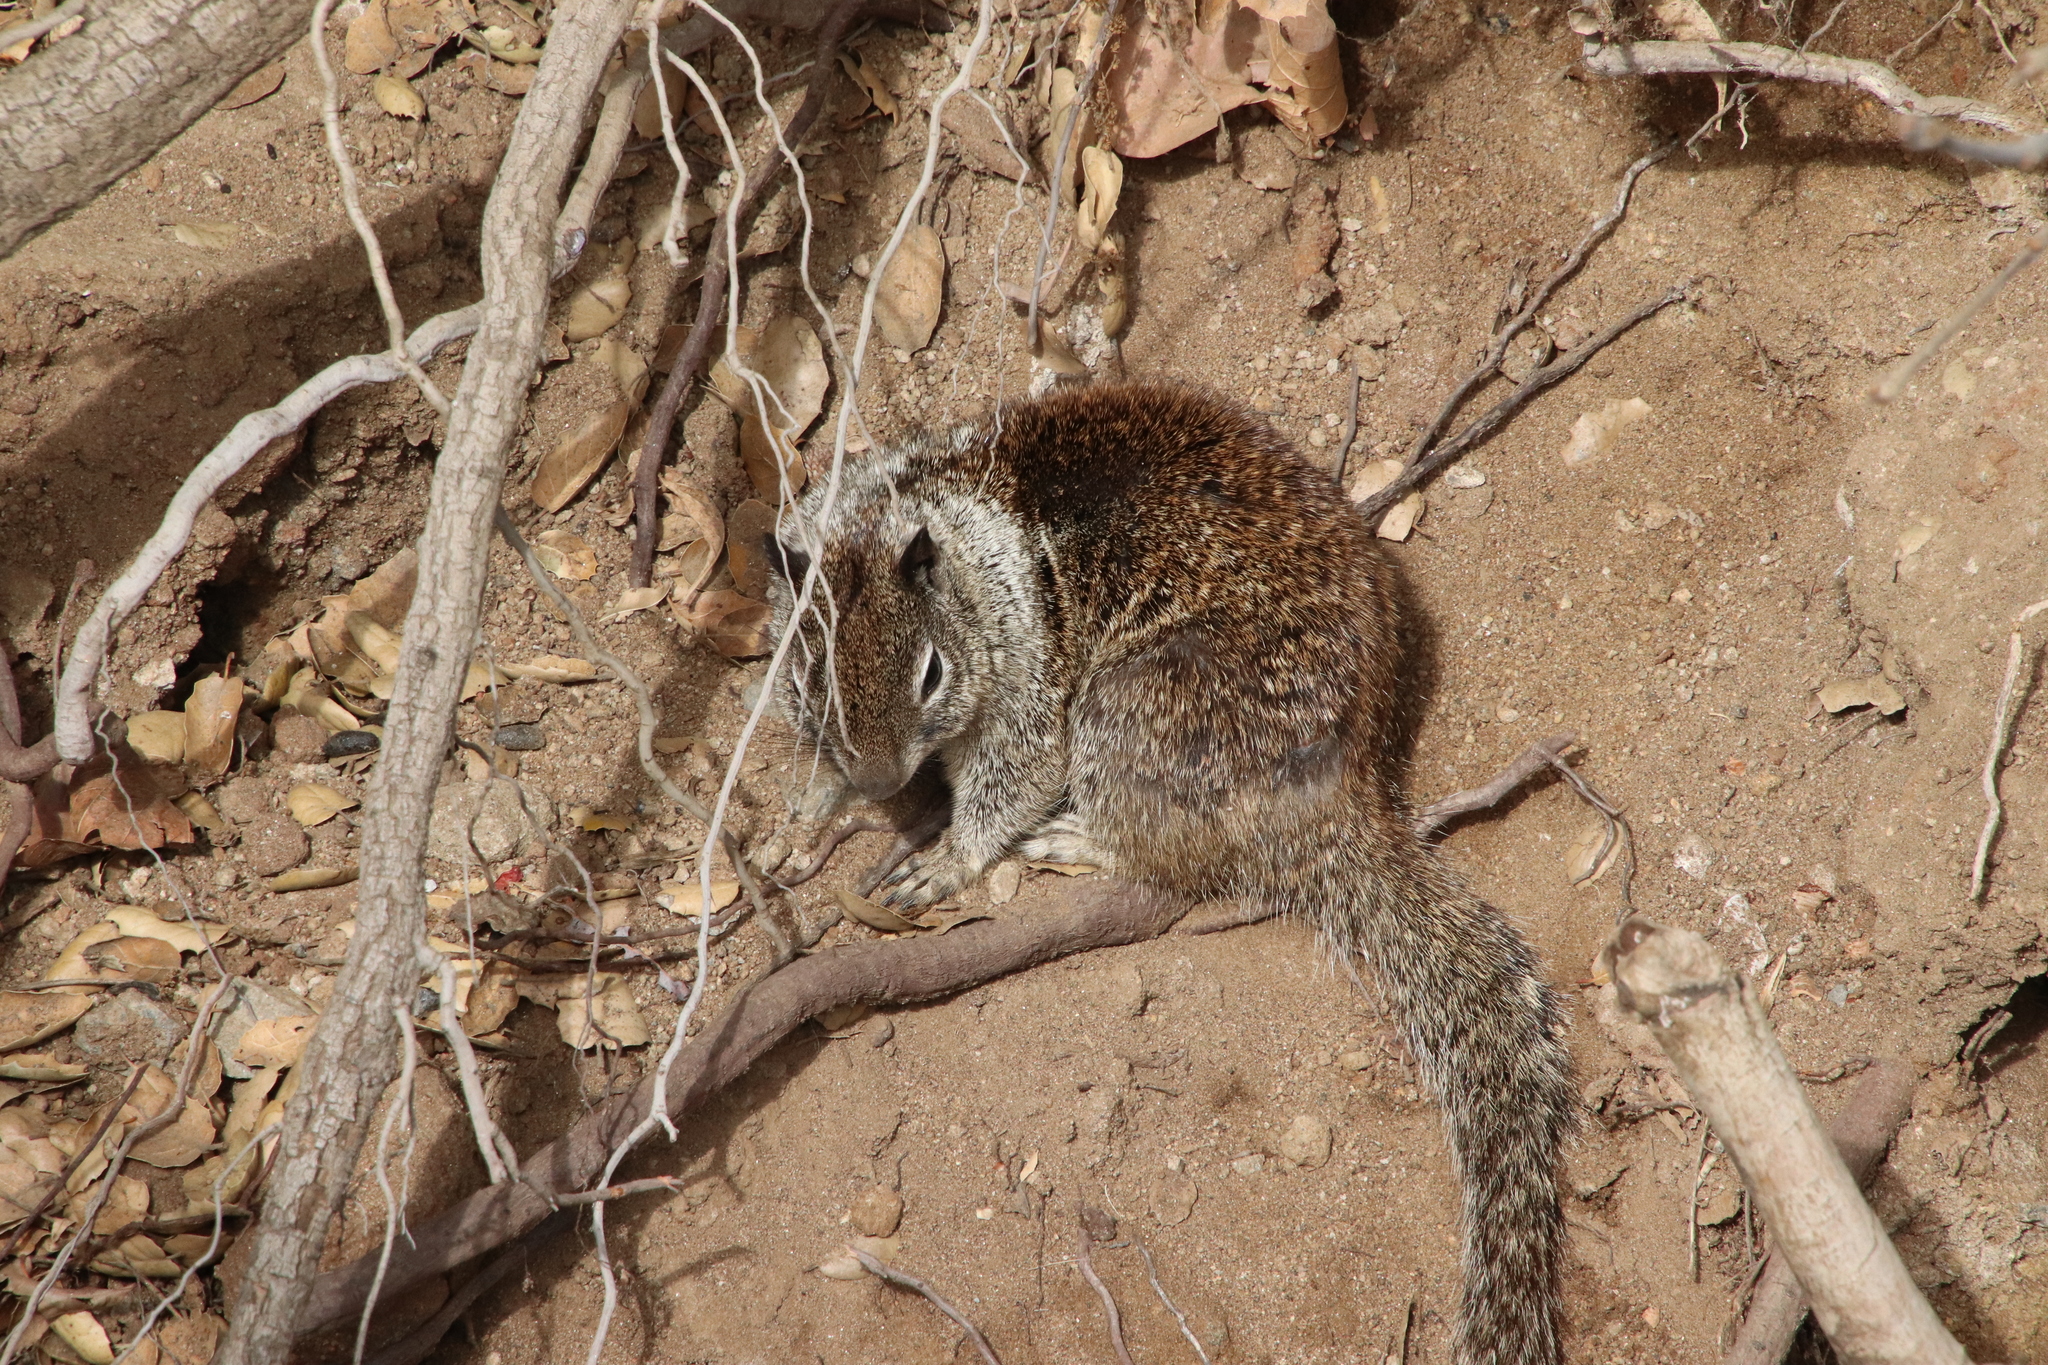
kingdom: Animalia
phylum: Chordata
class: Mammalia
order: Rodentia
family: Sciuridae
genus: Otospermophilus
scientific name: Otospermophilus beecheyi
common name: California ground squirrel
